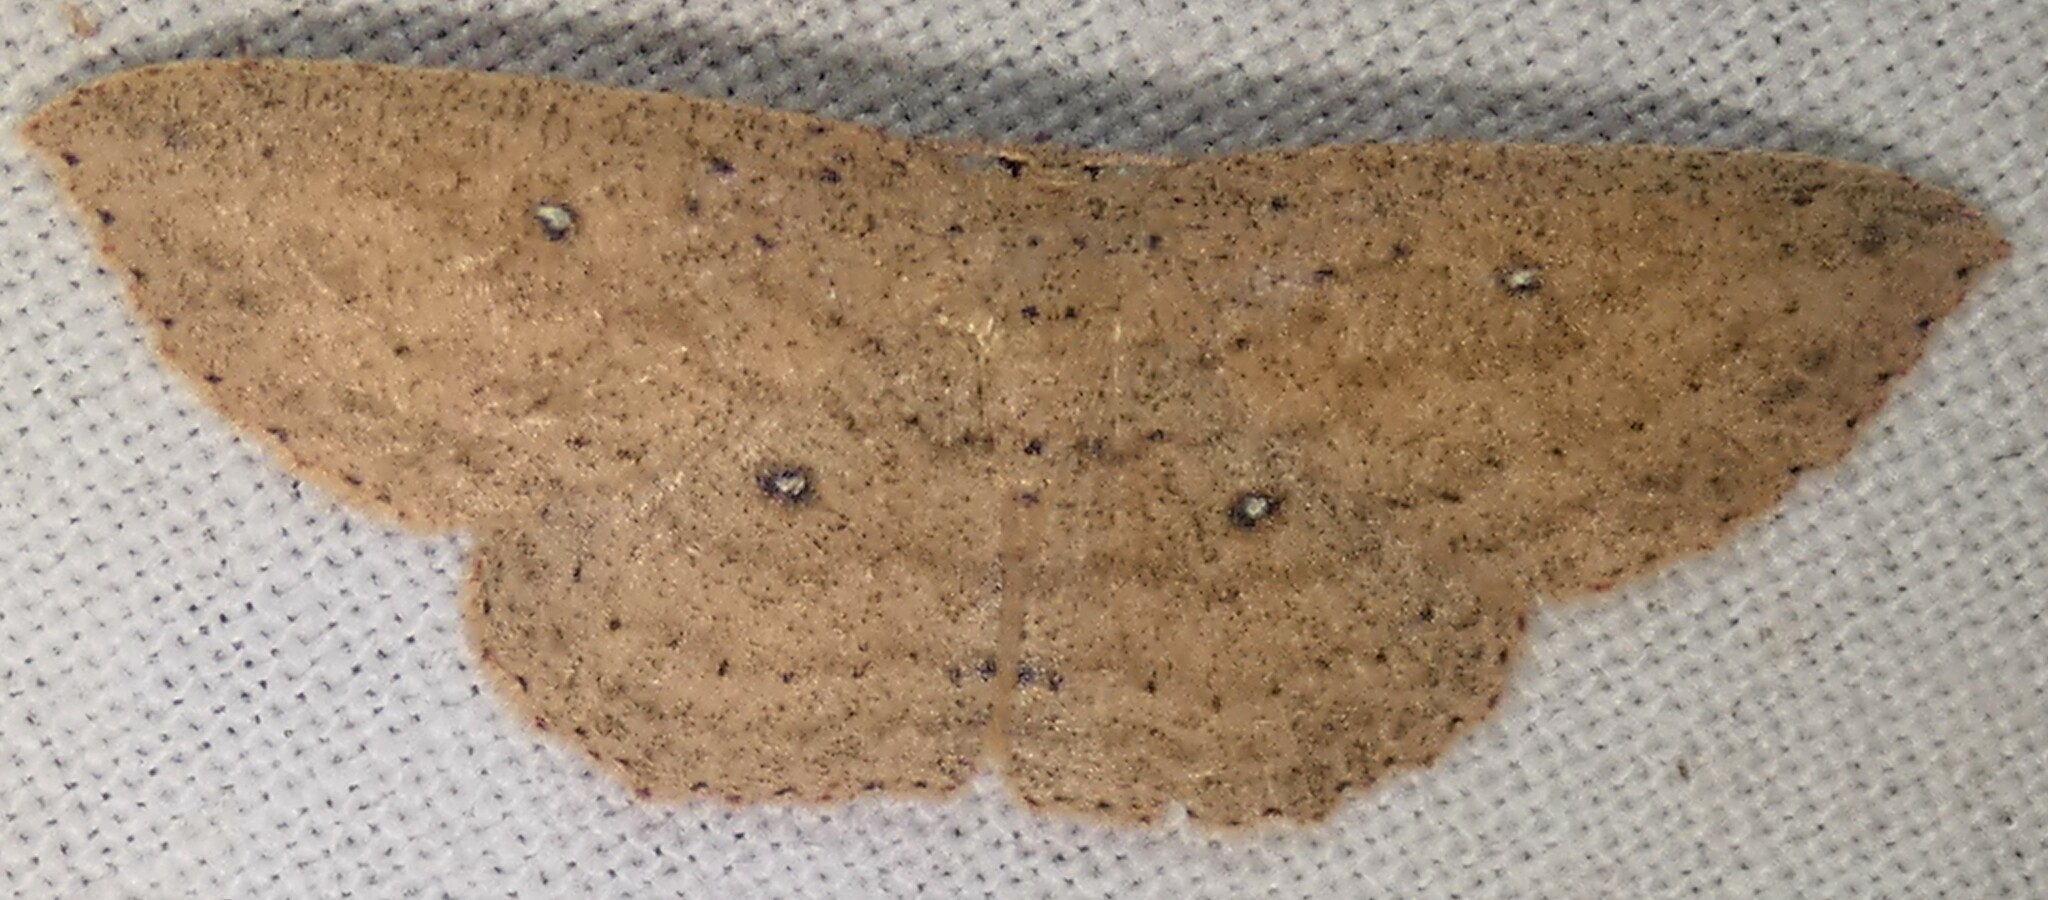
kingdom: Animalia
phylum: Arthropoda
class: Insecta
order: Lepidoptera
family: Geometridae
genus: Cyclophora
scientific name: Cyclophora myrtaria
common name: Waxmyrtle wave moth
